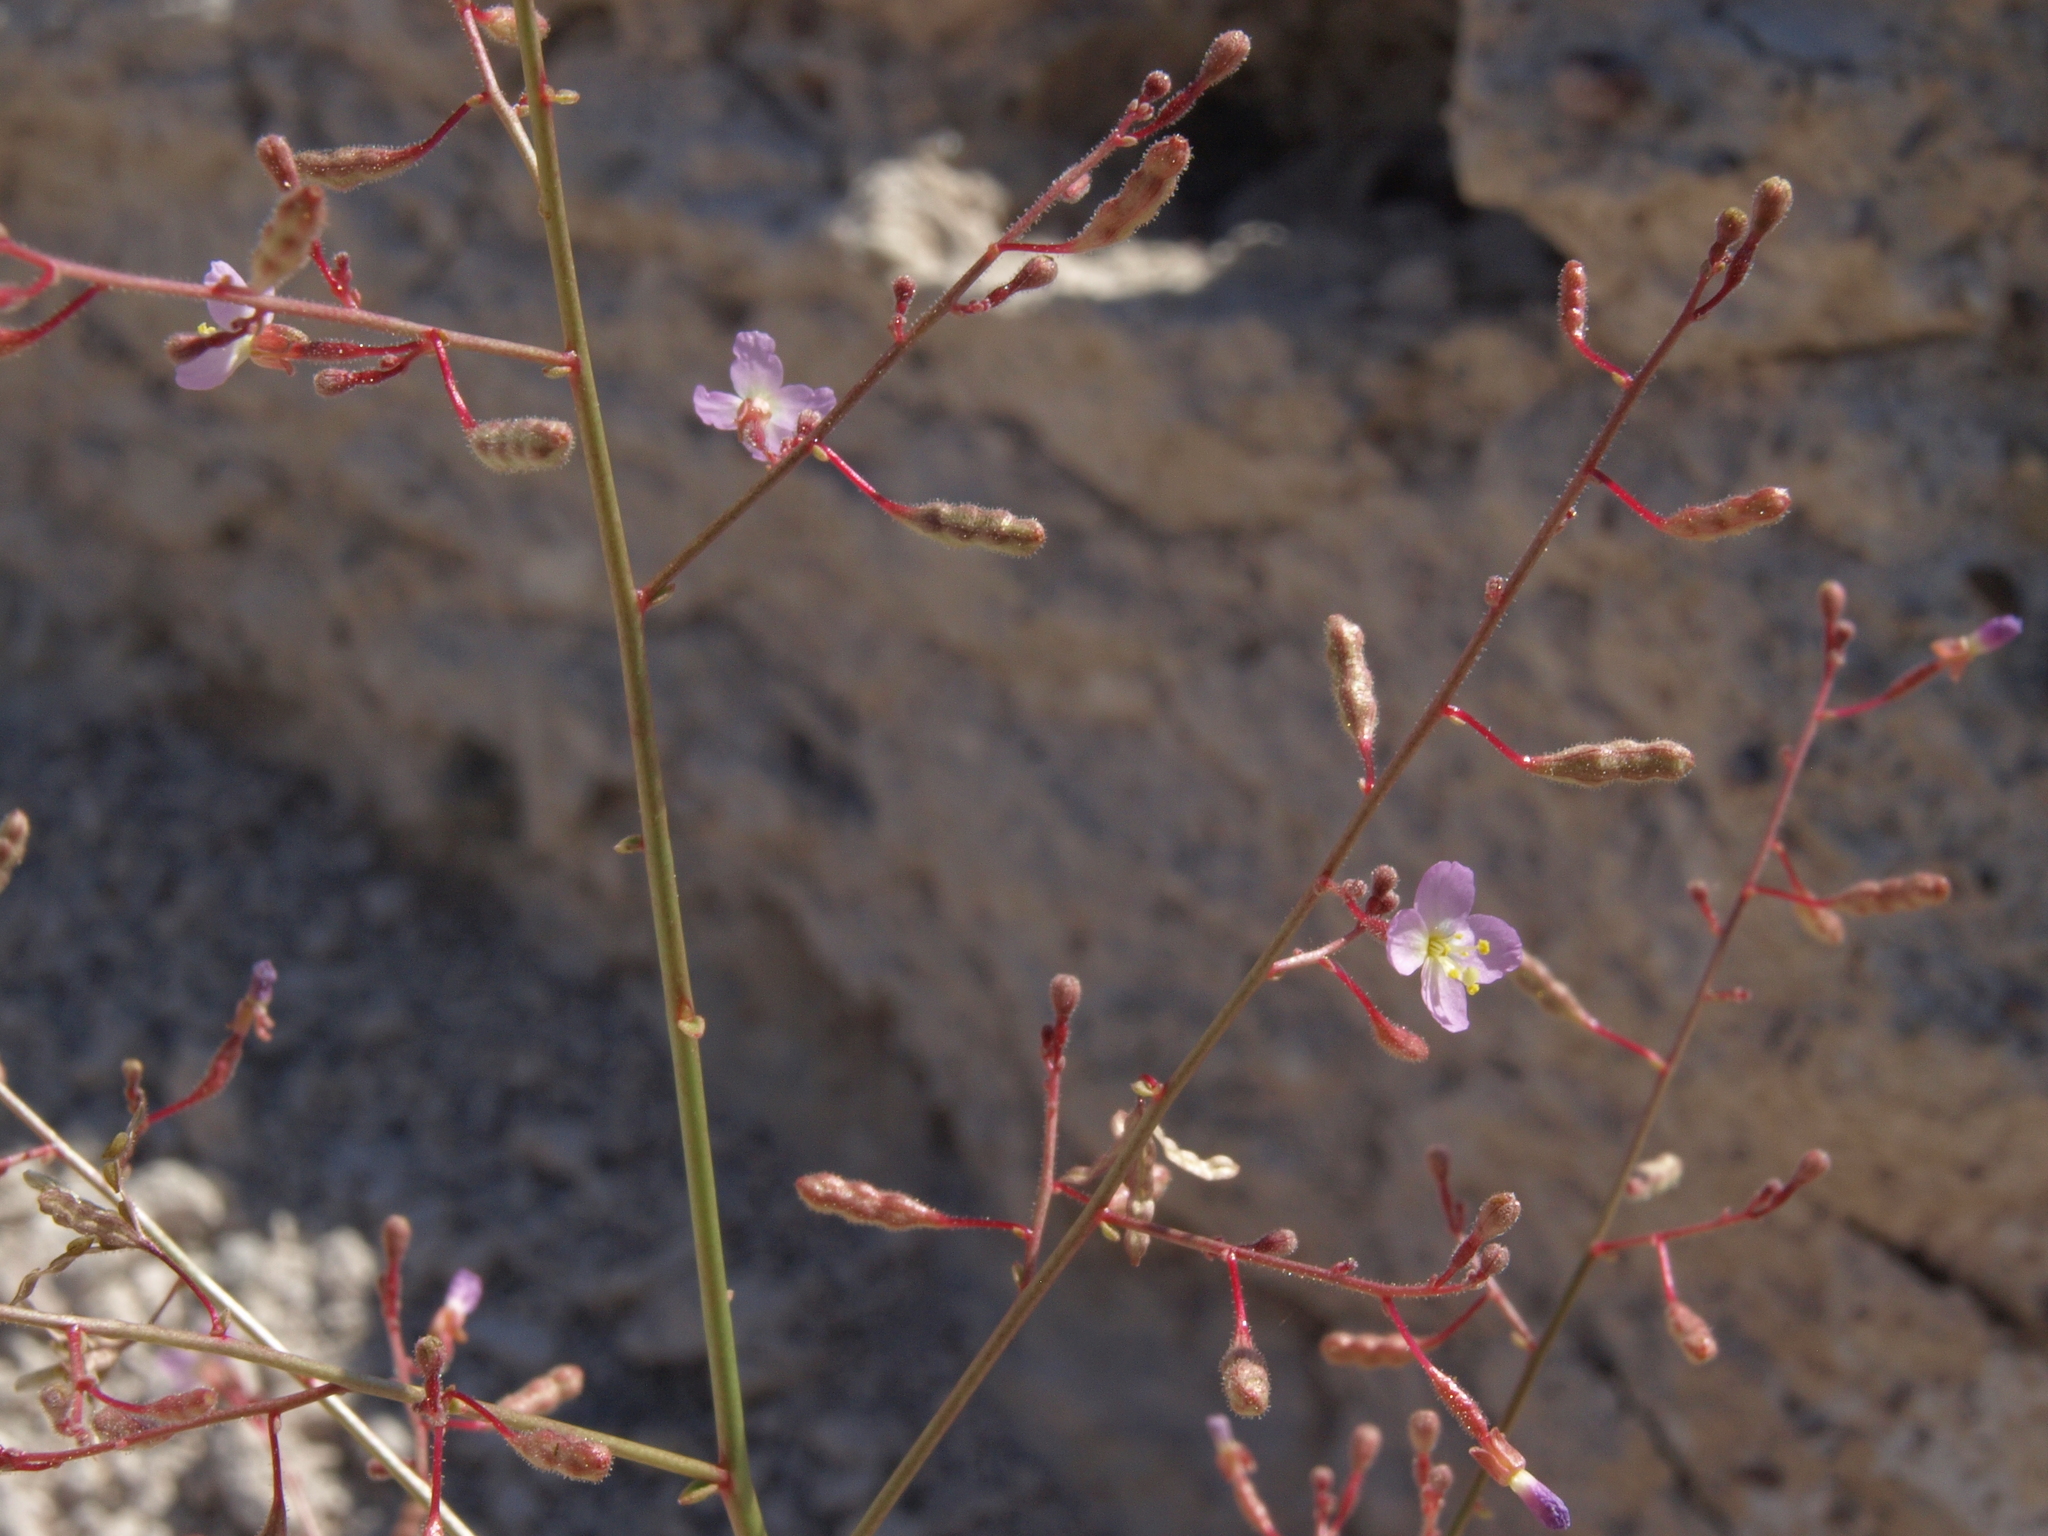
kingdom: Plantae
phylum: Tracheophyta
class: Magnoliopsida
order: Myrtales
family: Onagraceae
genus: Chylismia
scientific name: Chylismia heterochroma
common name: Shockley's evening primrose
